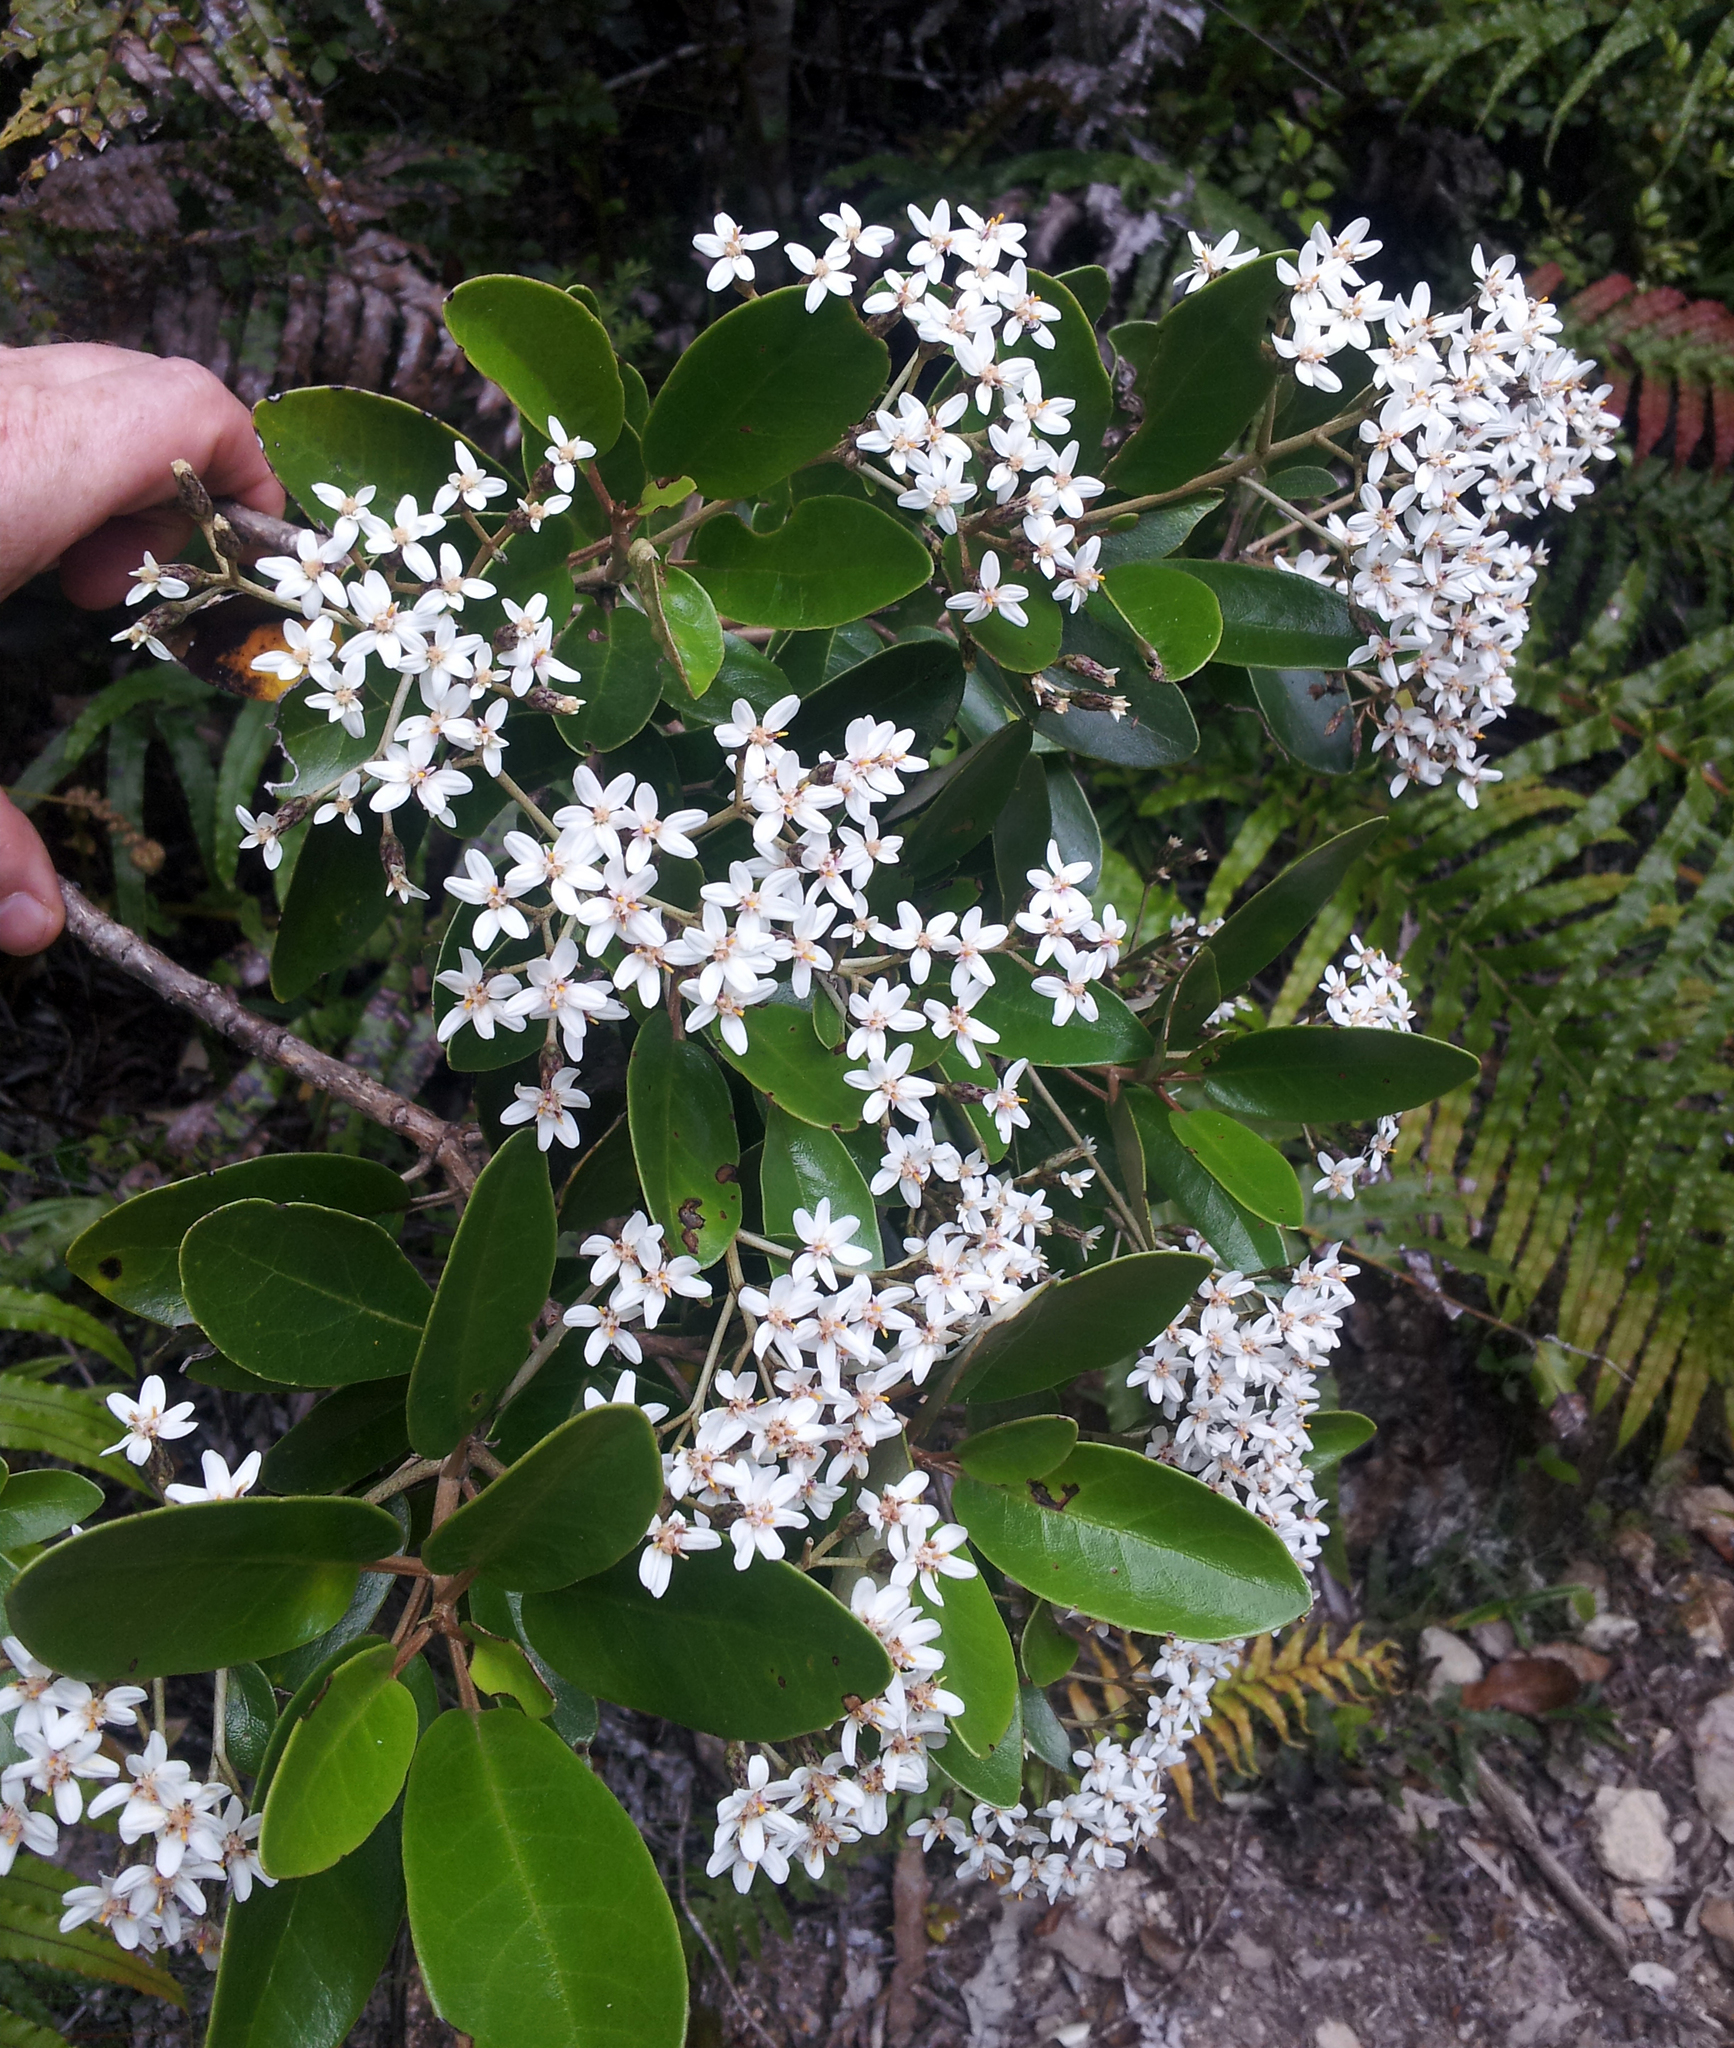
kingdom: Plantae
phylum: Tracheophyta
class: Magnoliopsida
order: Asterales
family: Asteraceae
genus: Olearia
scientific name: Olearia townsonii
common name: Coromandel tree daisy
